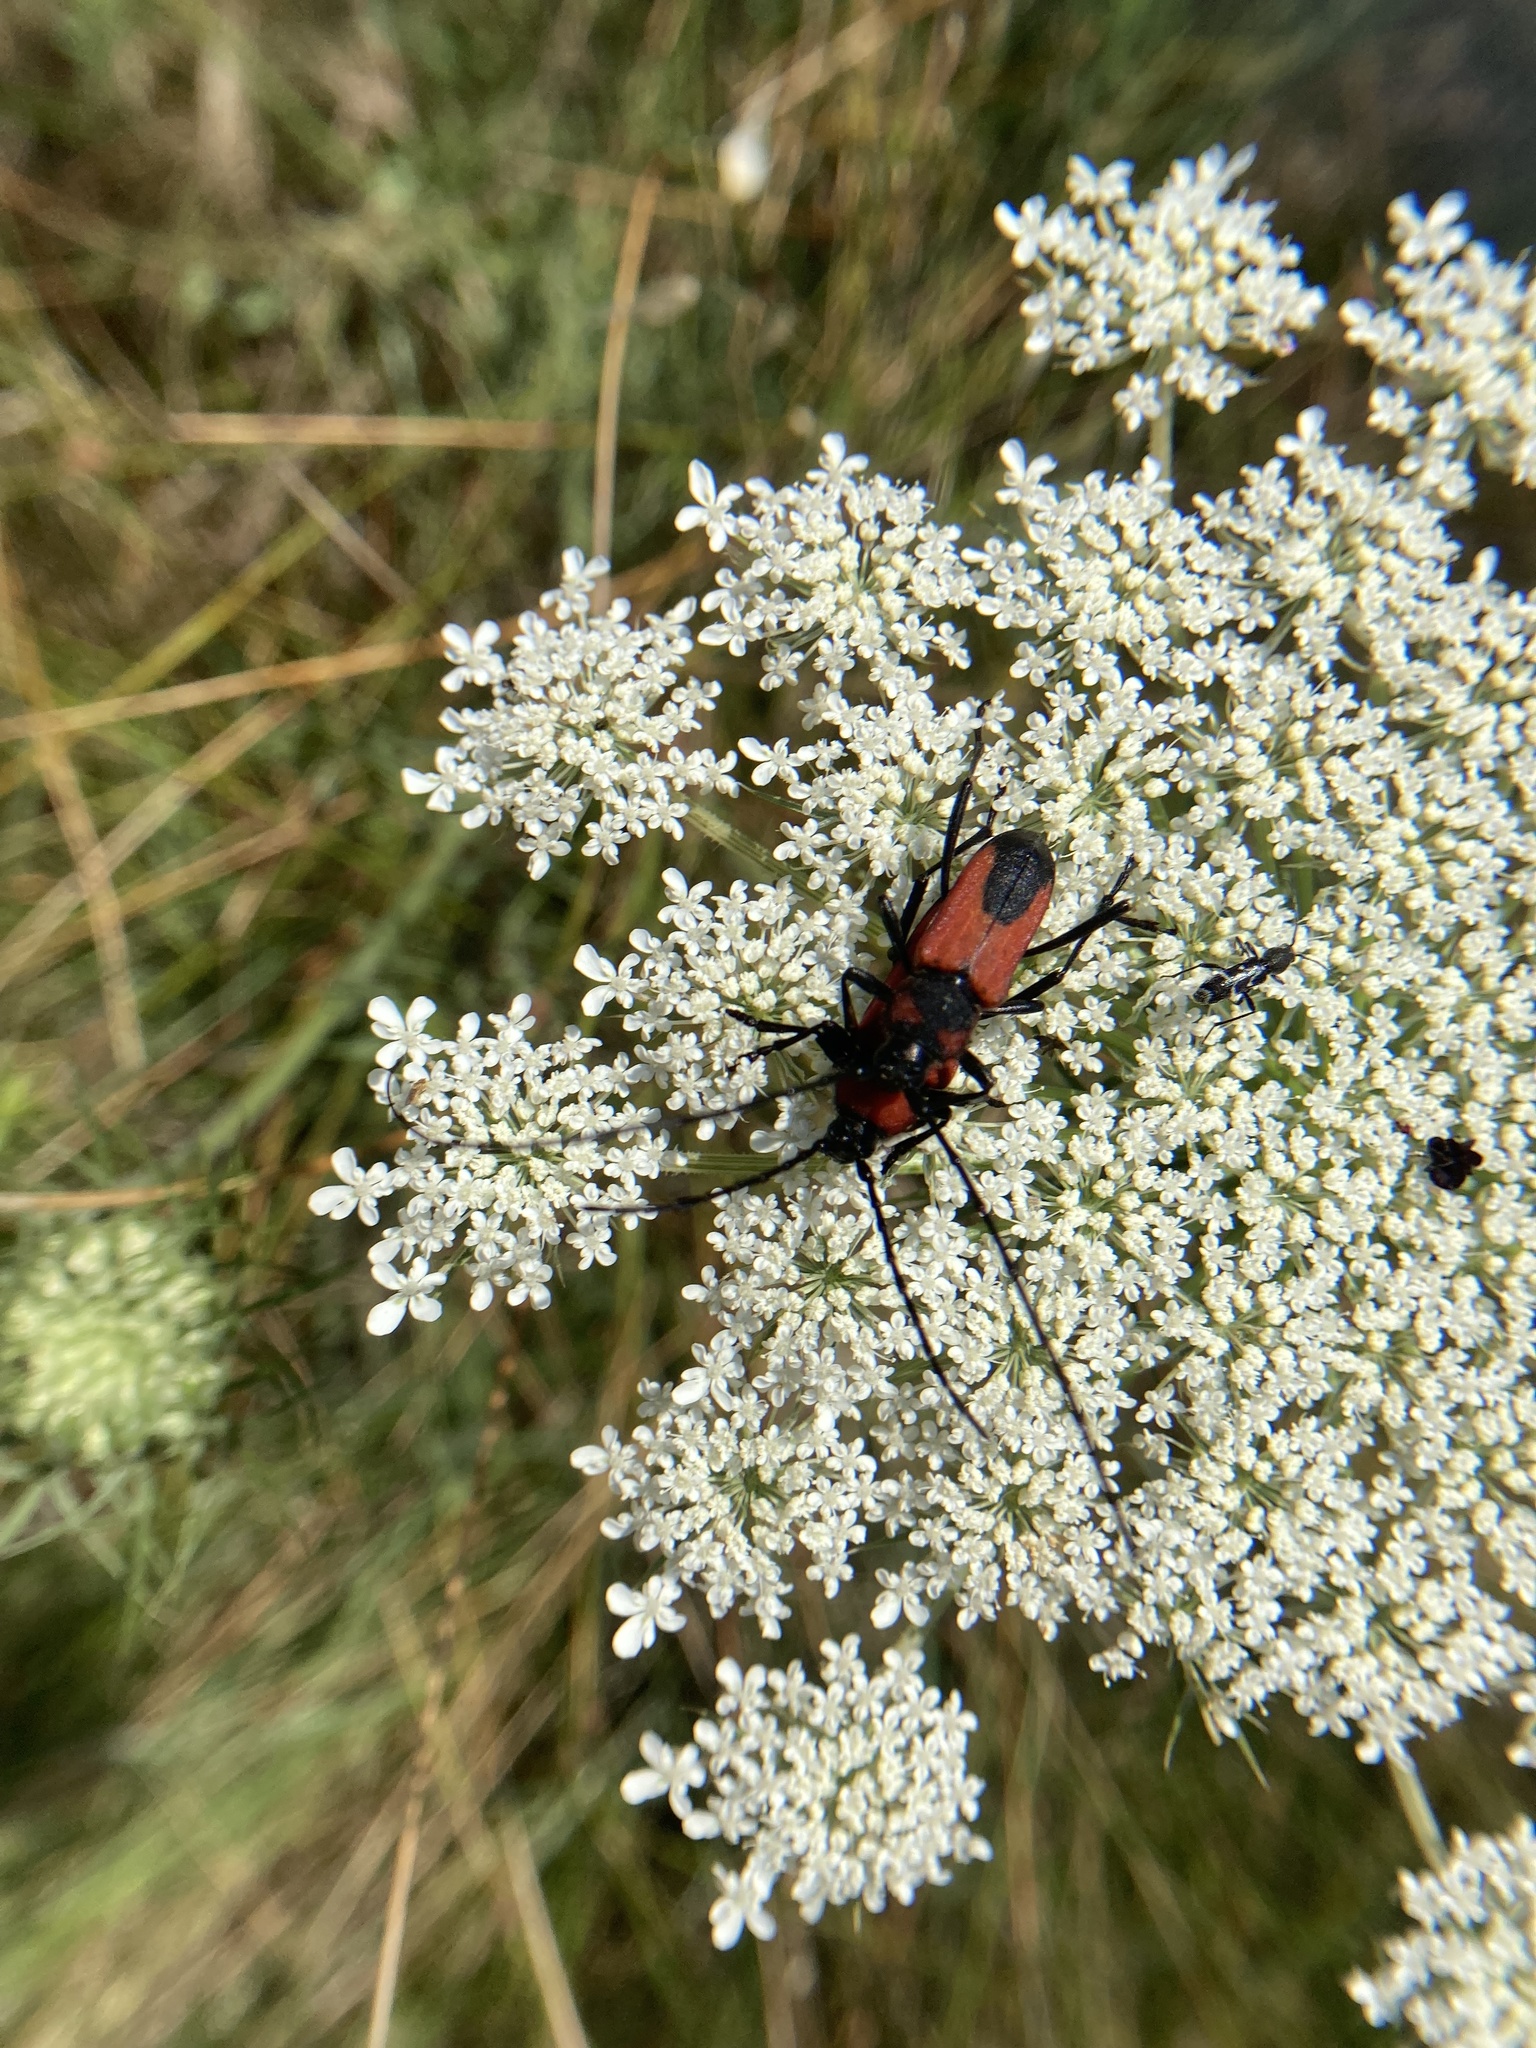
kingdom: Animalia
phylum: Arthropoda
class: Insecta
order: Coleoptera
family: Cerambycidae
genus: Purpuricenus
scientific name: Purpuricenus budensis
